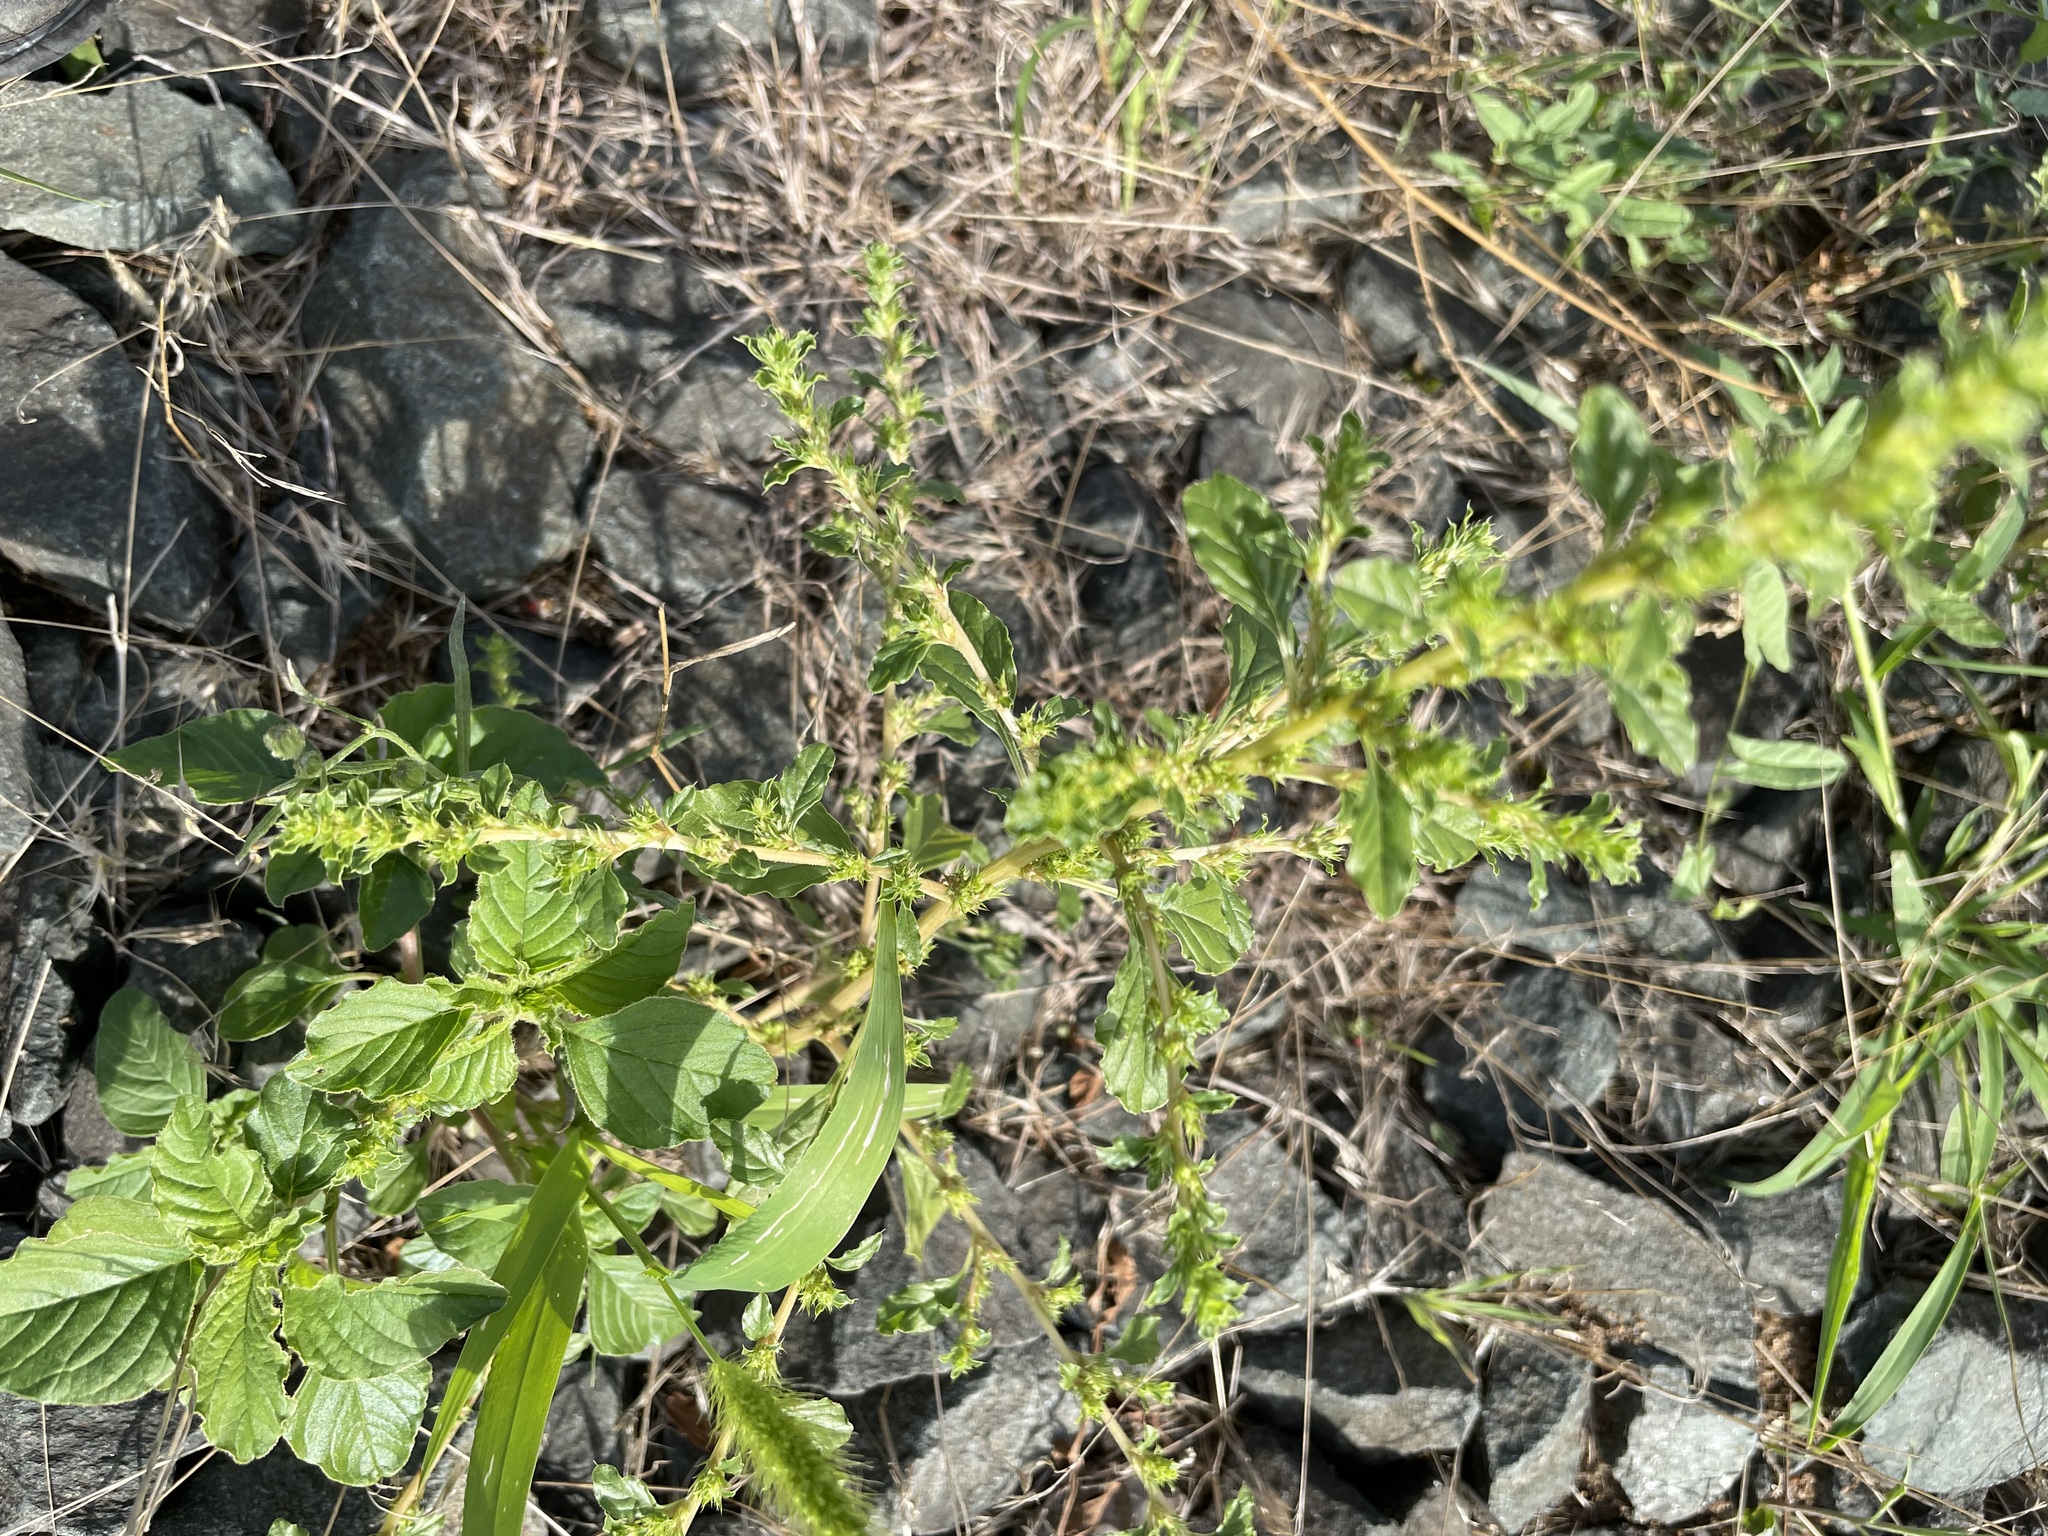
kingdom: Plantae
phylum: Tracheophyta
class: Magnoliopsida
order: Caryophyllales
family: Amaranthaceae
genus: Amaranthus
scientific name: Amaranthus albus
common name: White pigweed
